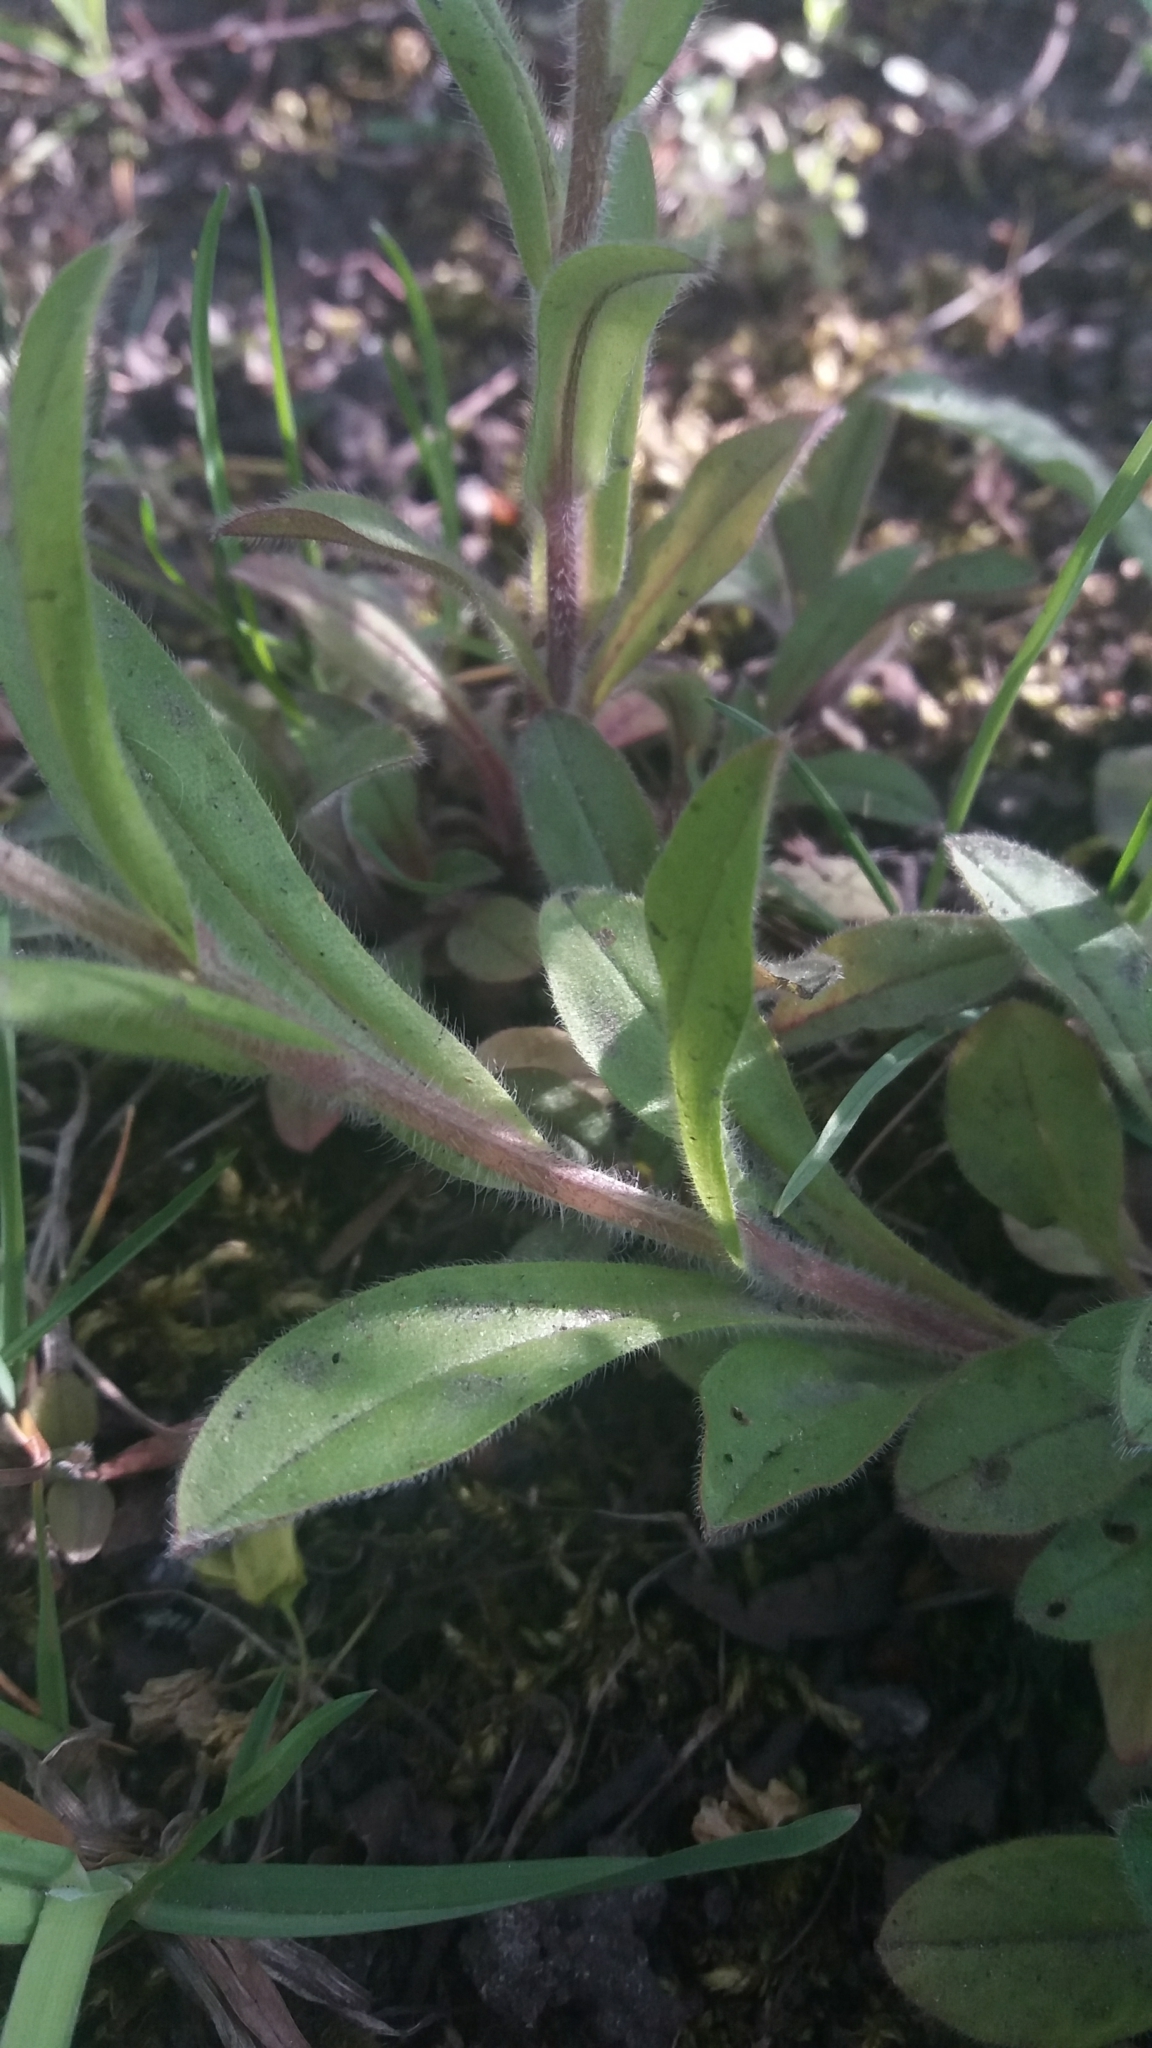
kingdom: Plantae
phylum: Tracheophyta
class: Magnoliopsida
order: Boraginales
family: Boraginaceae
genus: Myosotis
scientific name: Myosotis sylvatica
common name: Wood forget-me-not
